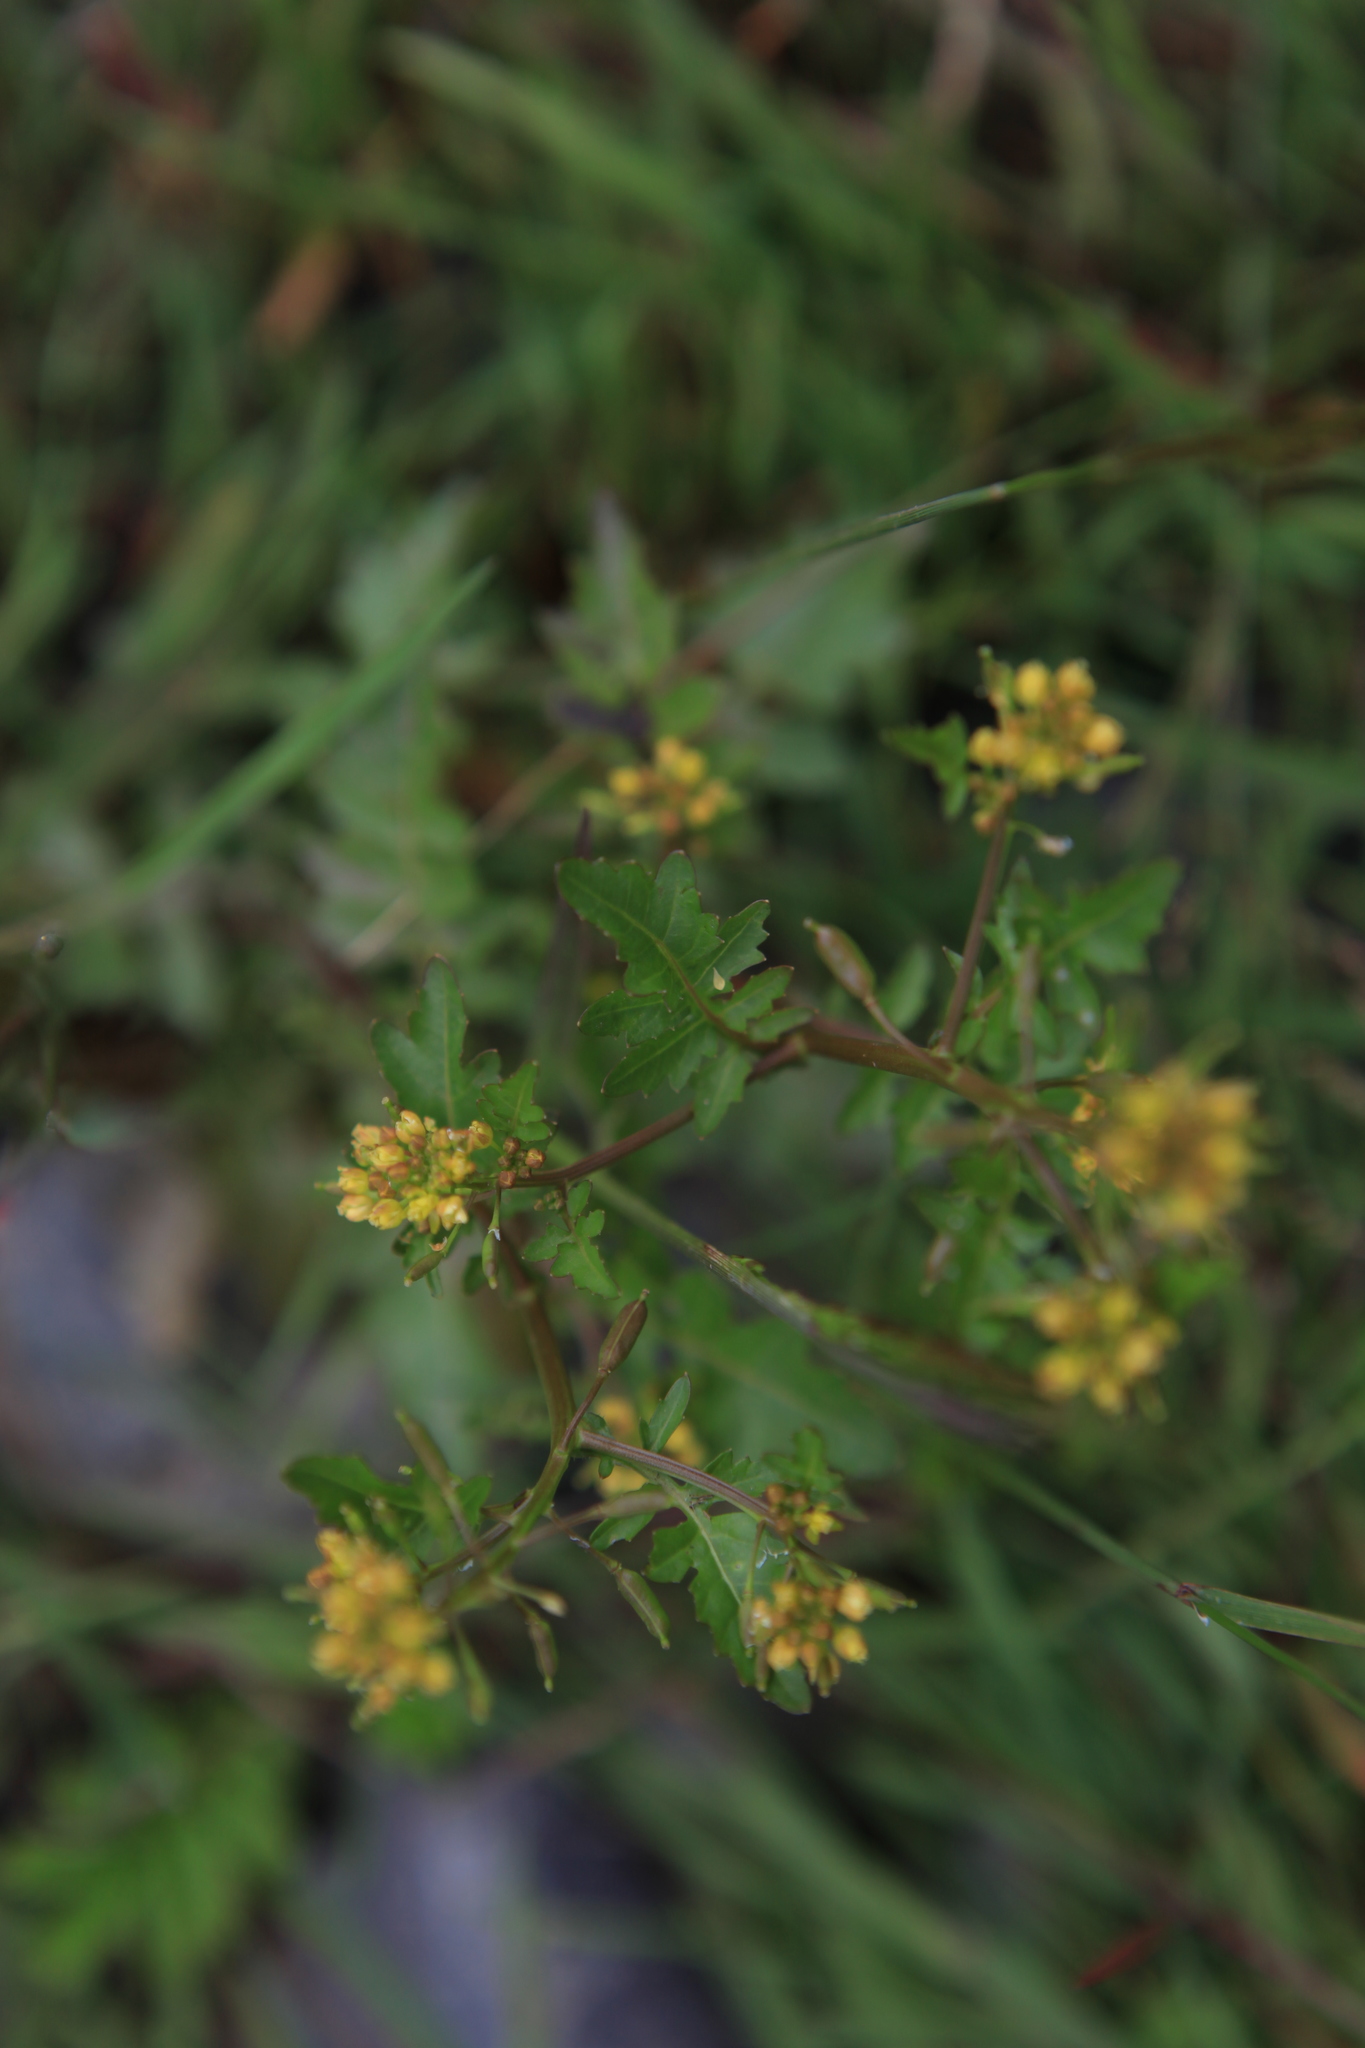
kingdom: Plantae
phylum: Tracheophyta
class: Magnoliopsida
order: Brassicales
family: Brassicaceae
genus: Rorippa
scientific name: Rorippa palustris
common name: Marsh yellow-cress
